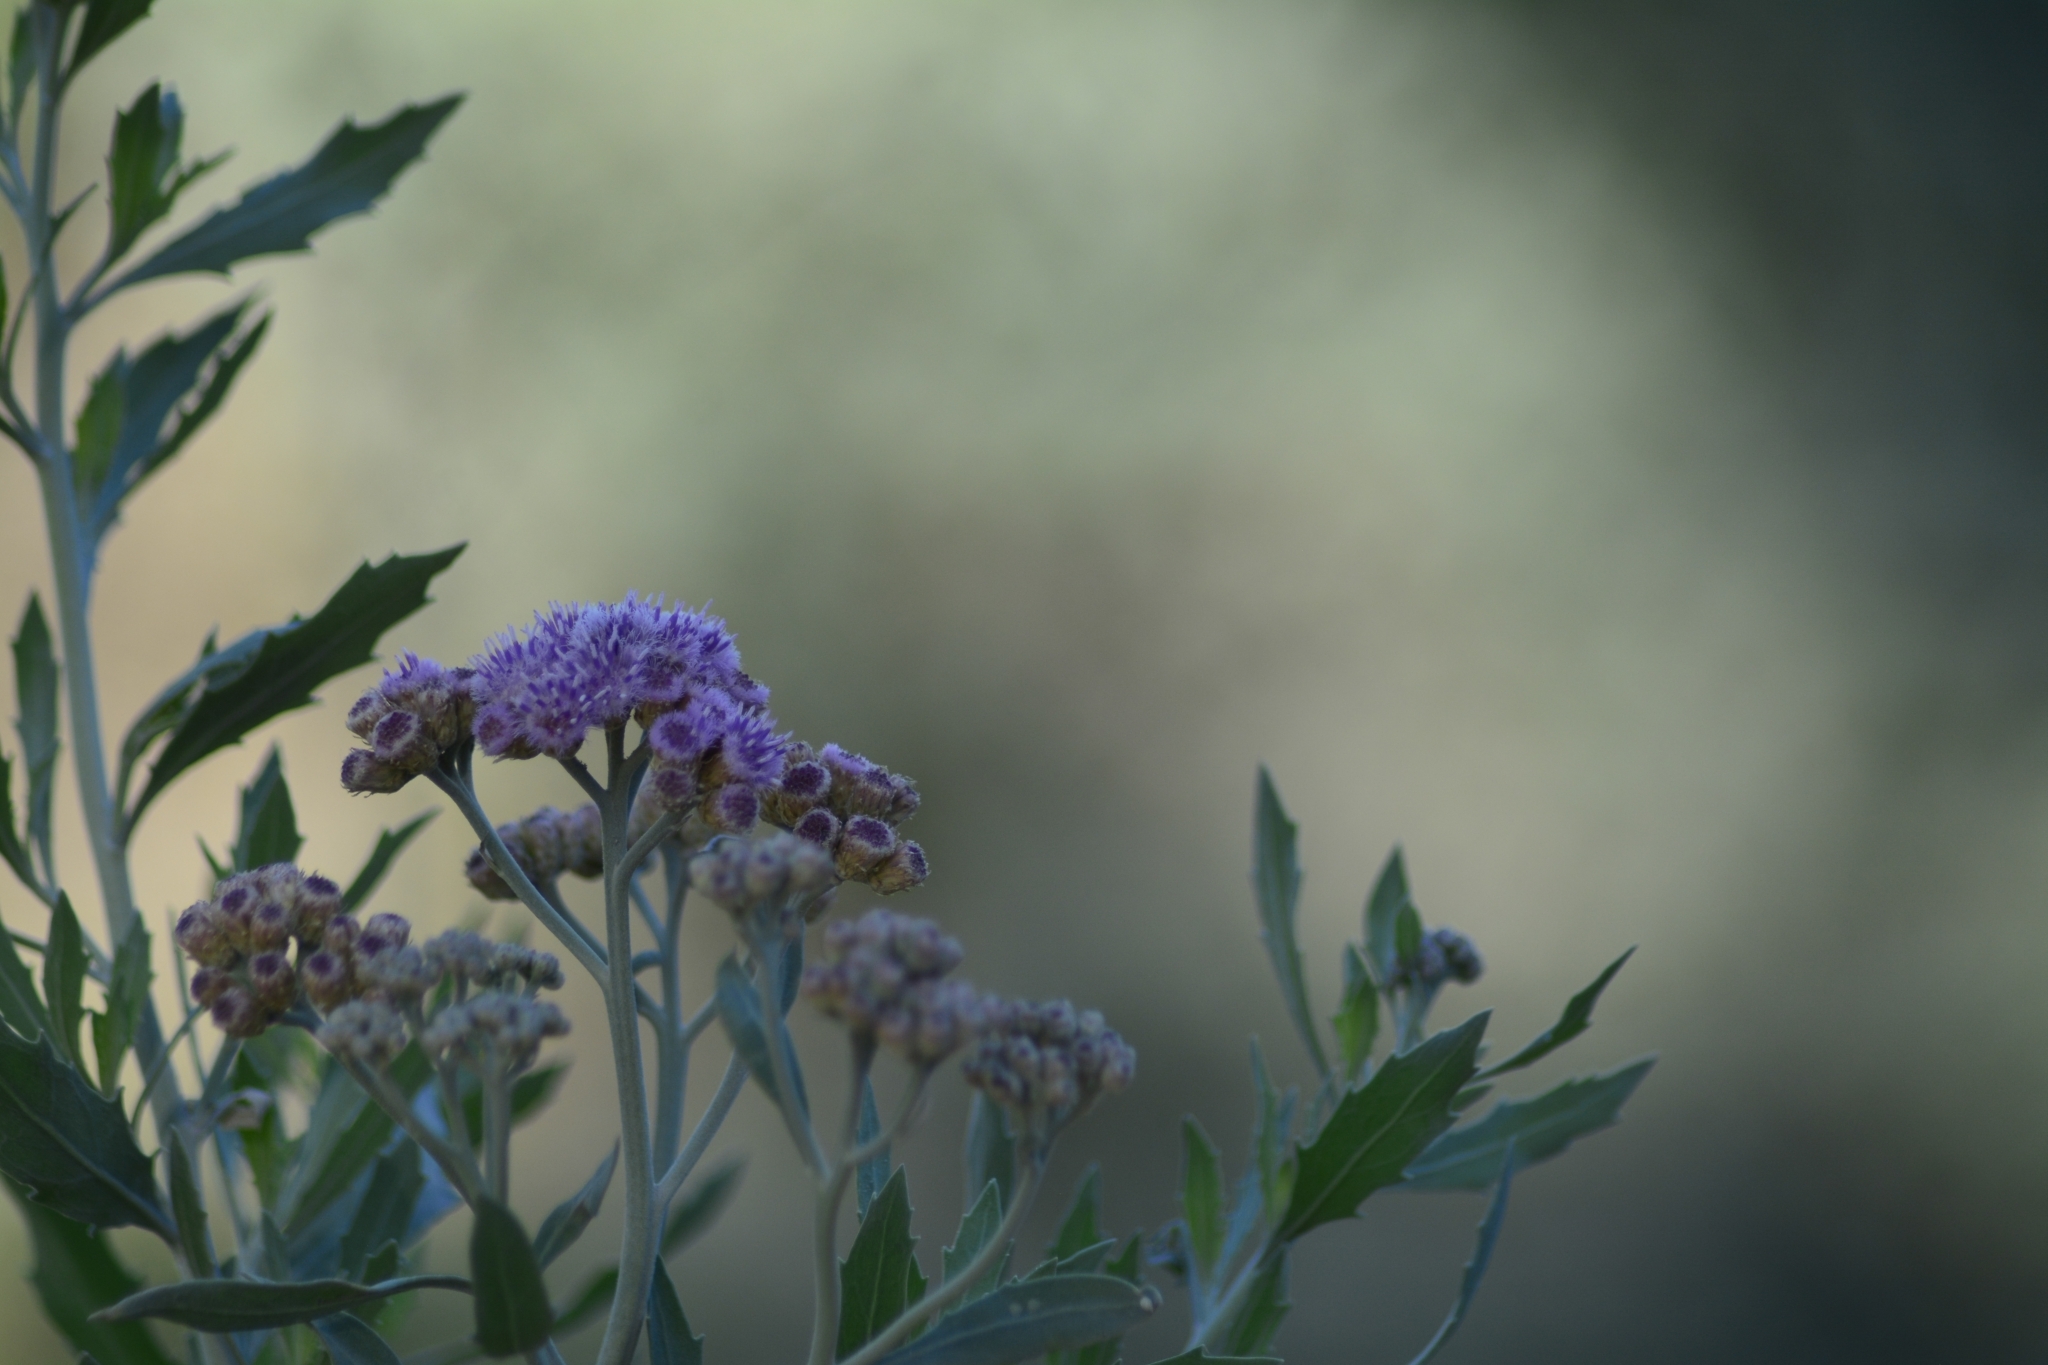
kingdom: Plantae
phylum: Tracheophyta
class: Magnoliopsida
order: Asterales
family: Asteraceae
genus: Tessaria
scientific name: Tessaria absinthioides
